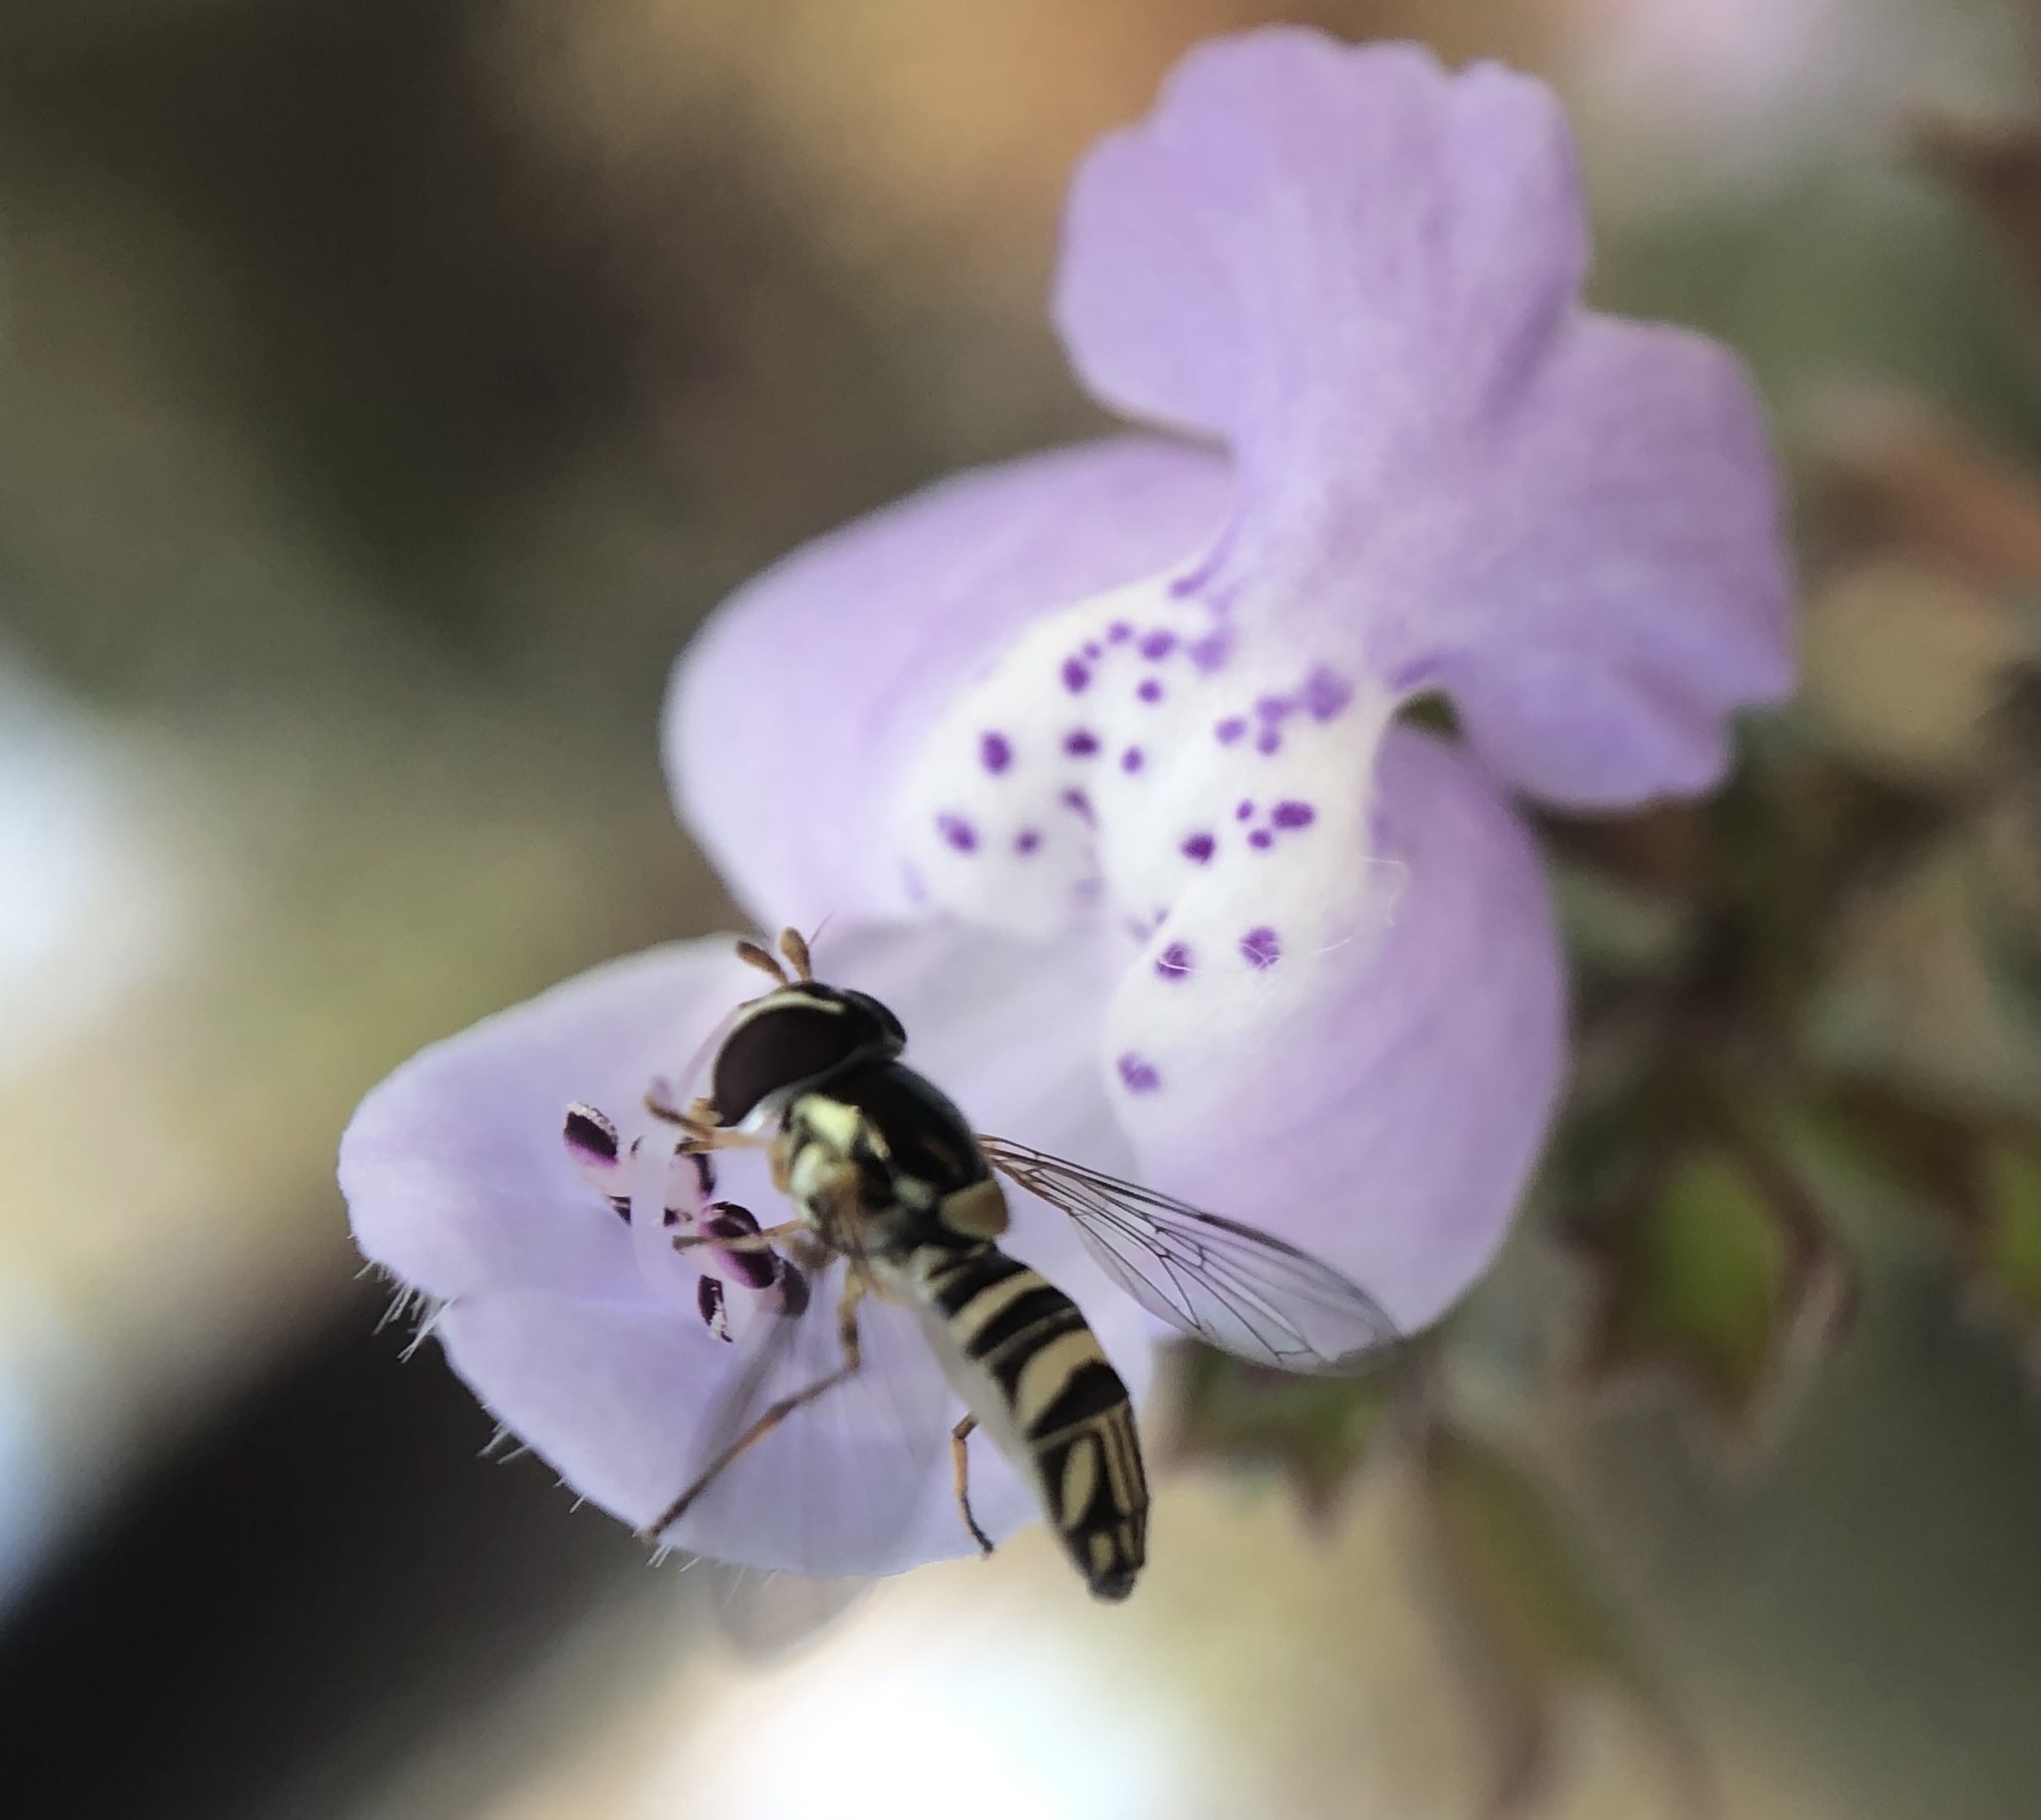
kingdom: Animalia
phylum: Arthropoda
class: Insecta
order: Diptera
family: Syrphidae
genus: Allograpta
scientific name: Allograpta obliqua
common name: Common oblique syrphid
